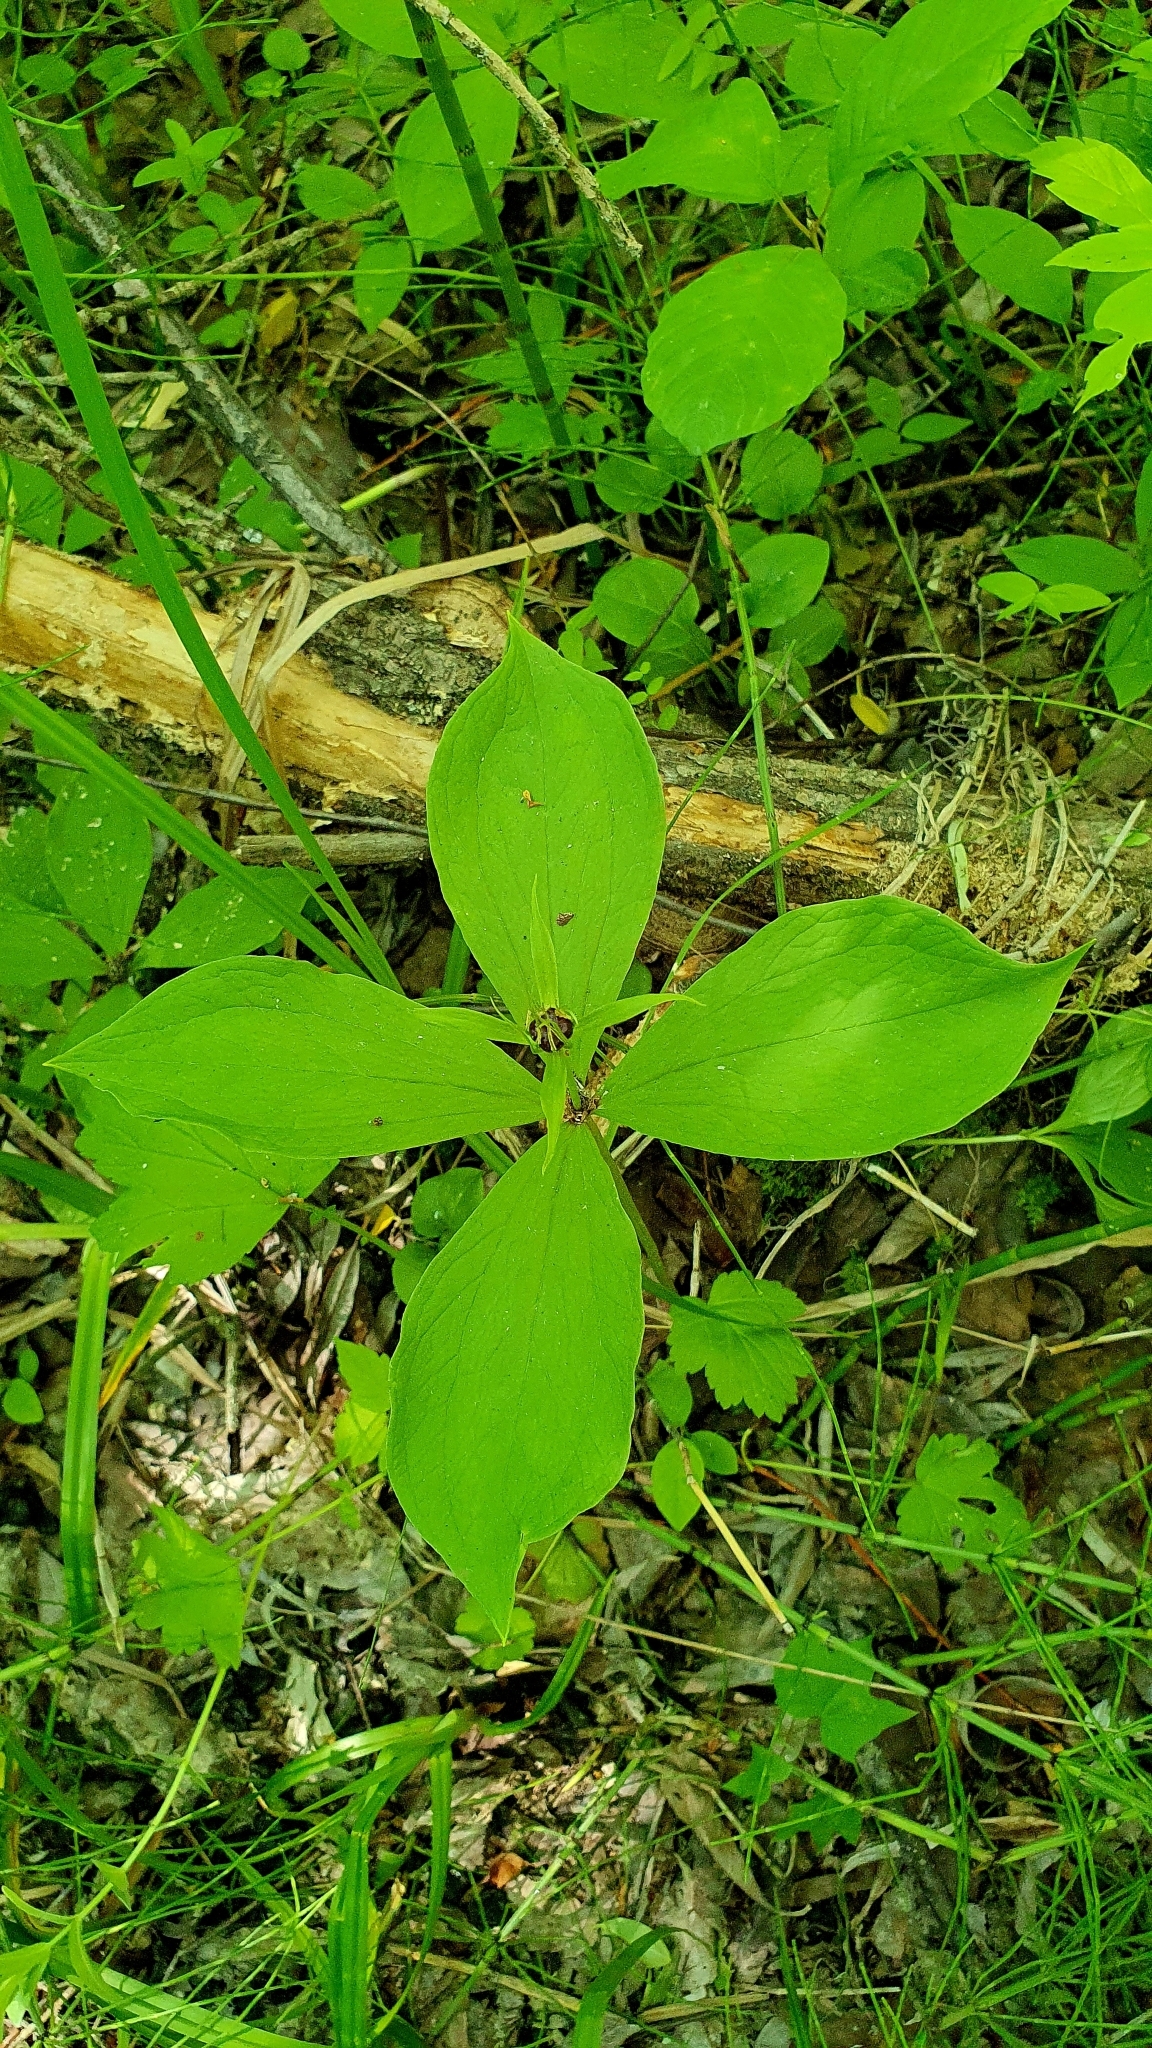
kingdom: Plantae
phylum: Tracheophyta
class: Liliopsida
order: Liliales
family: Melanthiaceae
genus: Paris
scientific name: Paris quadrifolia
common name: Herb-paris
